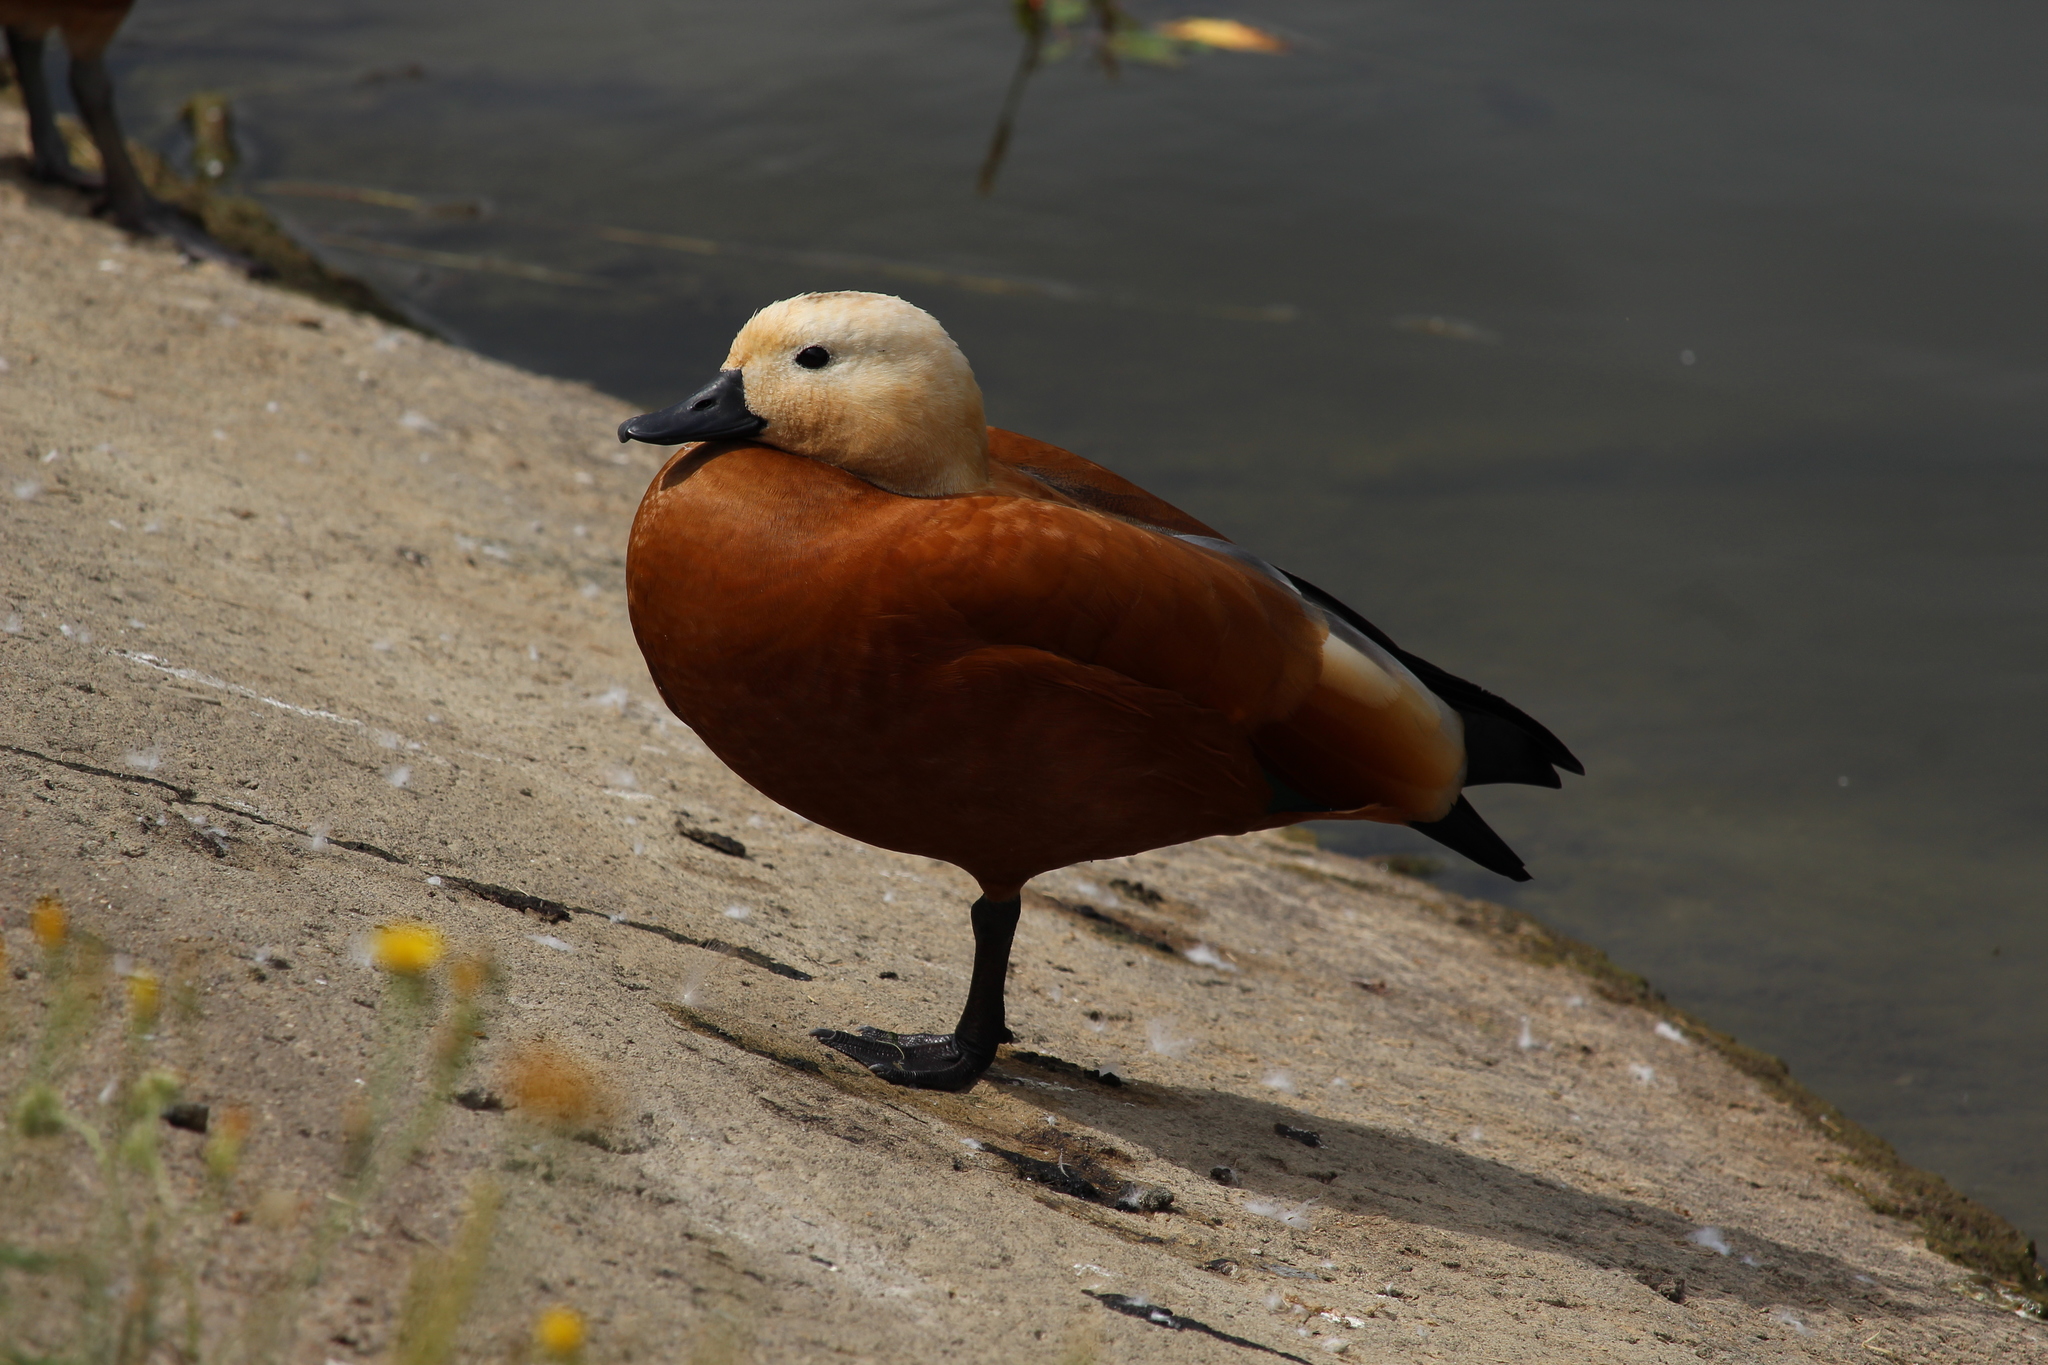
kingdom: Animalia
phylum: Chordata
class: Aves
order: Anseriformes
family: Anatidae
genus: Tadorna
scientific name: Tadorna ferruginea
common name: Ruddy shelduck
